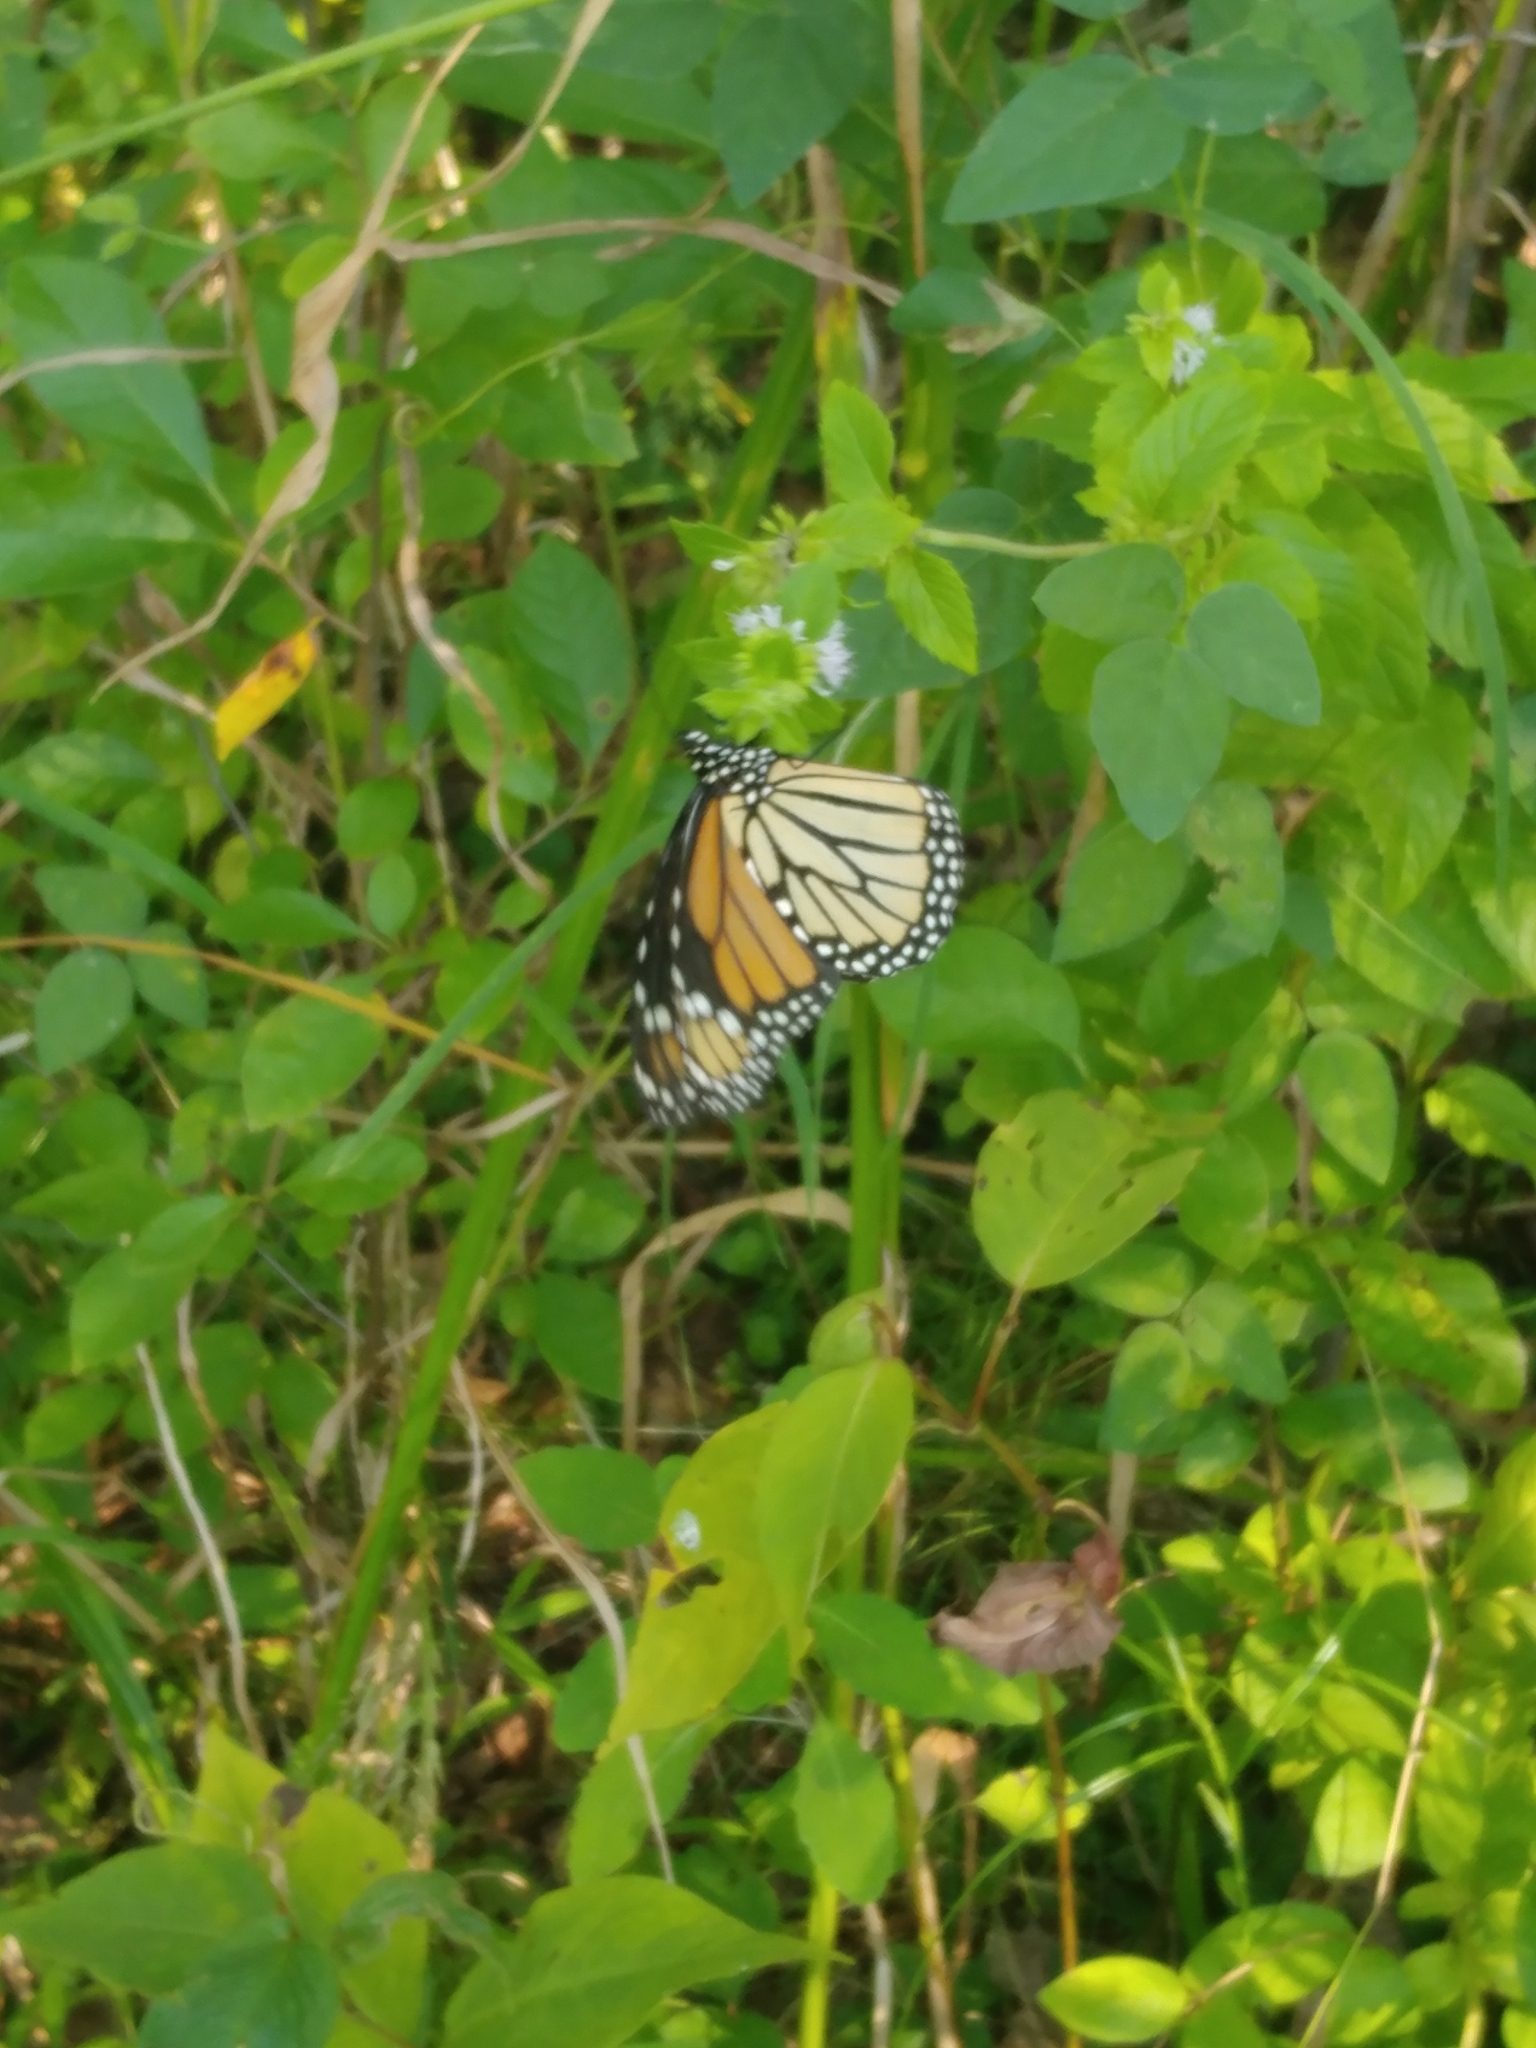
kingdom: Animalia
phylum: Arthropoda
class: Insecta
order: Lepidoptera
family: Nymphalidae
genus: Danaus
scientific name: Danaus plexippus
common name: Monarch
